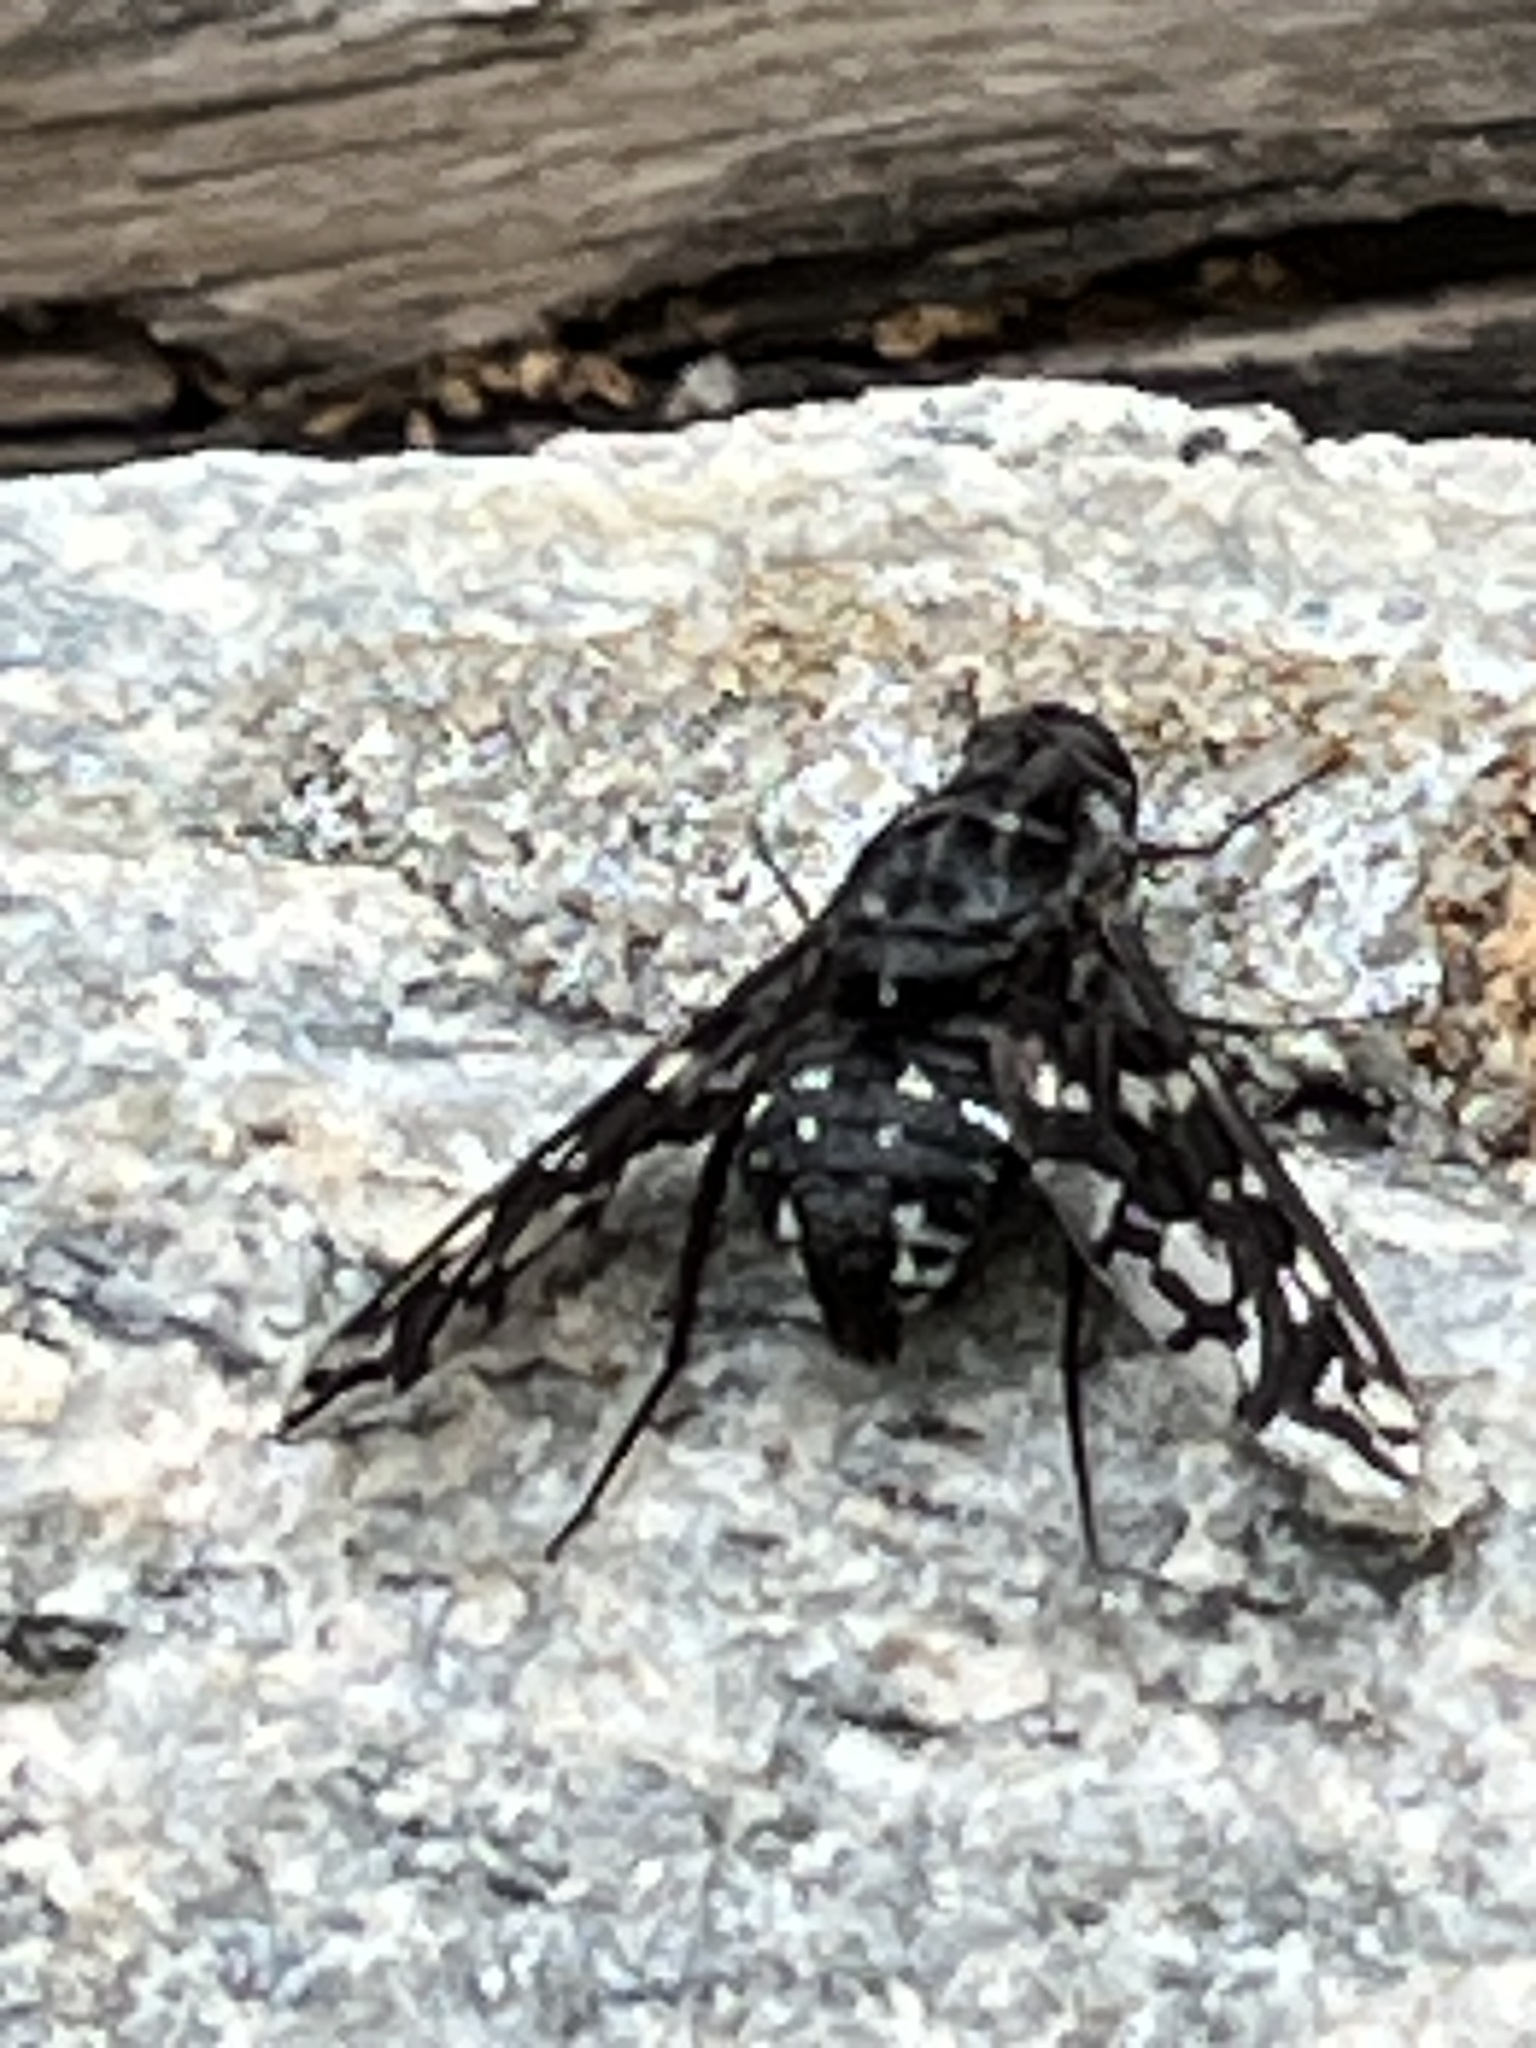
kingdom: Animalia
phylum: Arthropoda
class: Insecta
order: Diptera
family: Bombyliidae
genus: Xenox
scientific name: Xenox tigrinus
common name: Tiger bee fly
